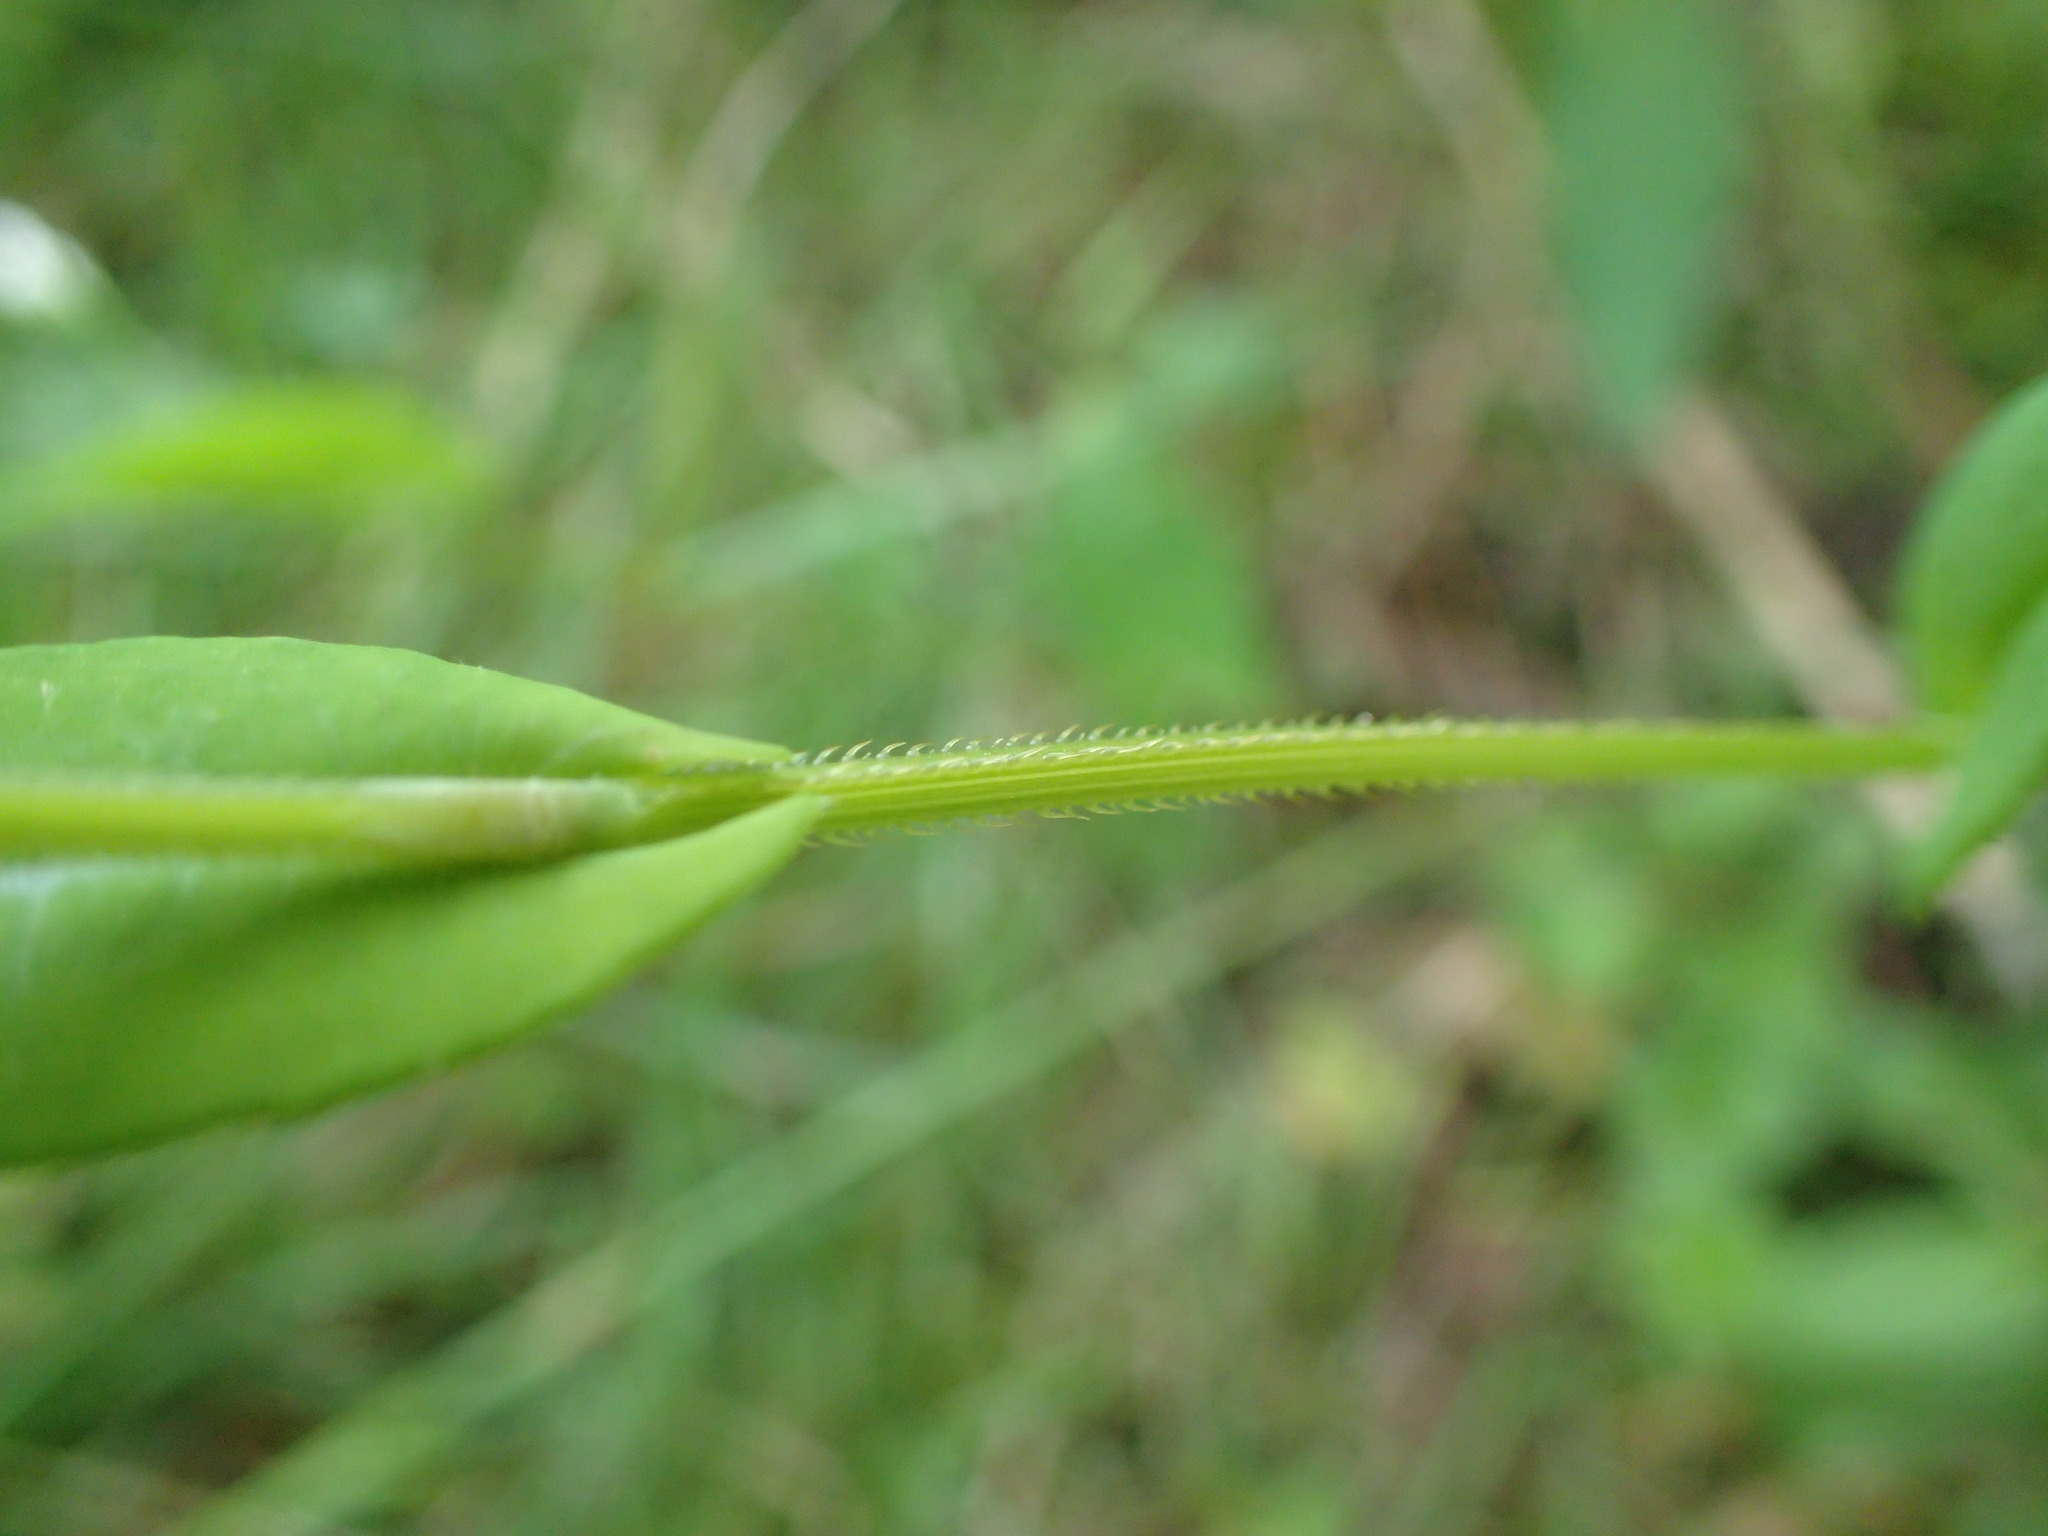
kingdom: Plantae
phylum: Tracheophyta
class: Magnoliopsida
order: Caryophyllales
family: Polygonaceae
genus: Persicaria
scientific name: Persicaria sagittata
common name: American tearthumb
